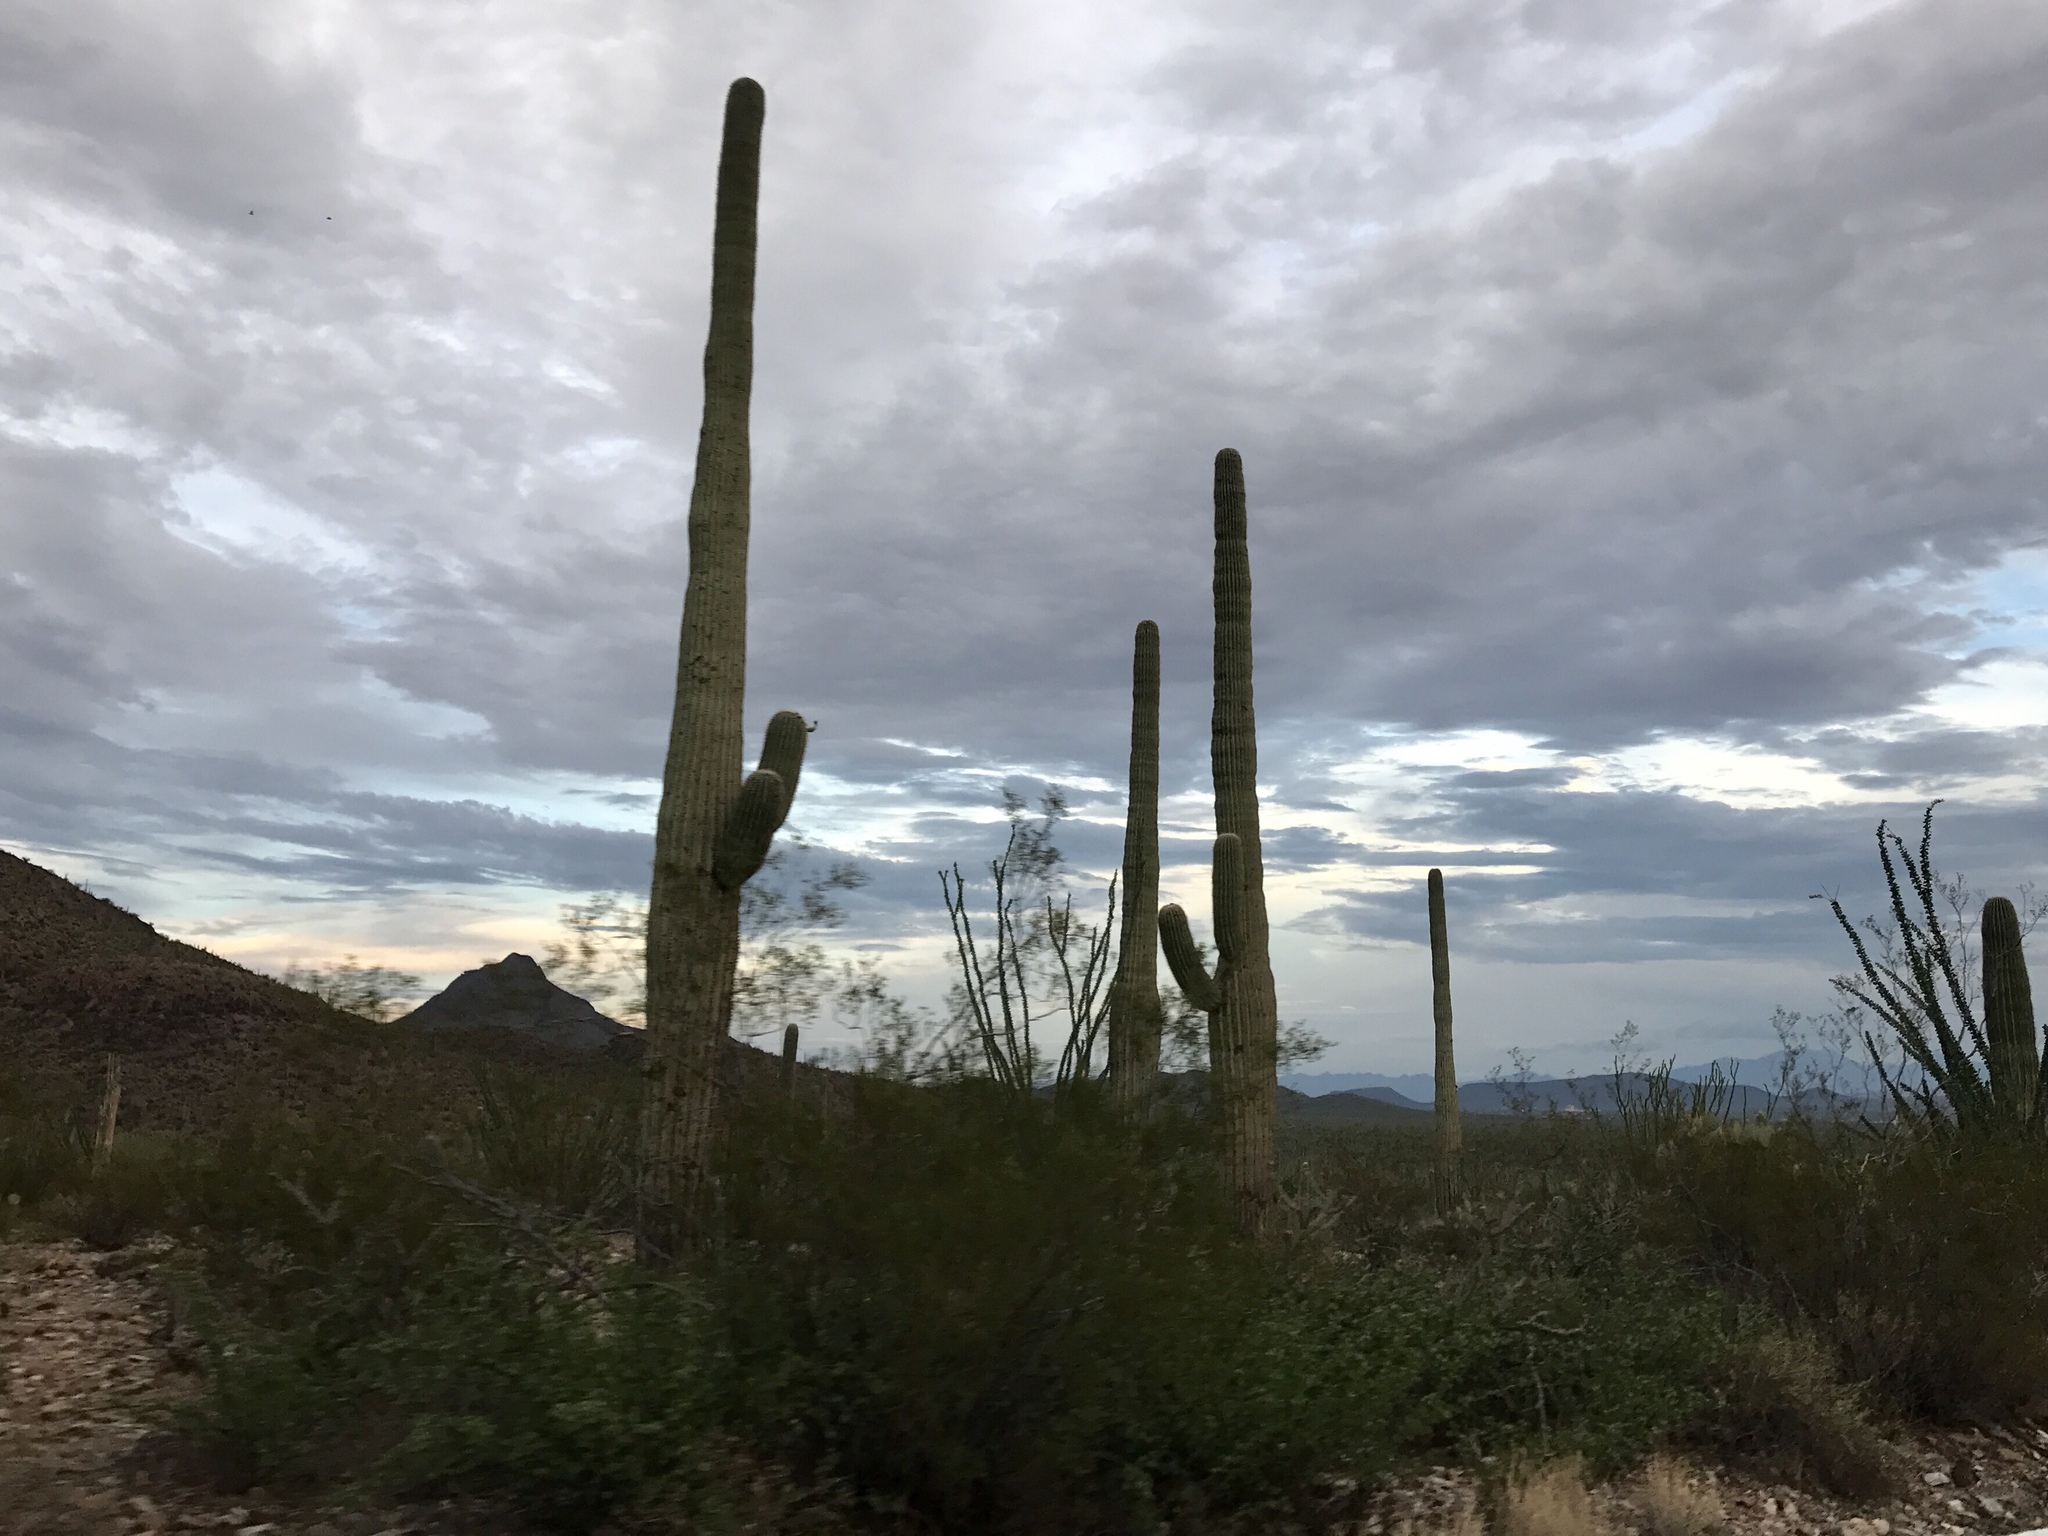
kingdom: Plantae
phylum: Tracheophyta
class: Magnoliopsida
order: Caryophyllales
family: Cactaceae
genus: Carnegiea
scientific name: Carnegiea gigantea
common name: Saguaro
